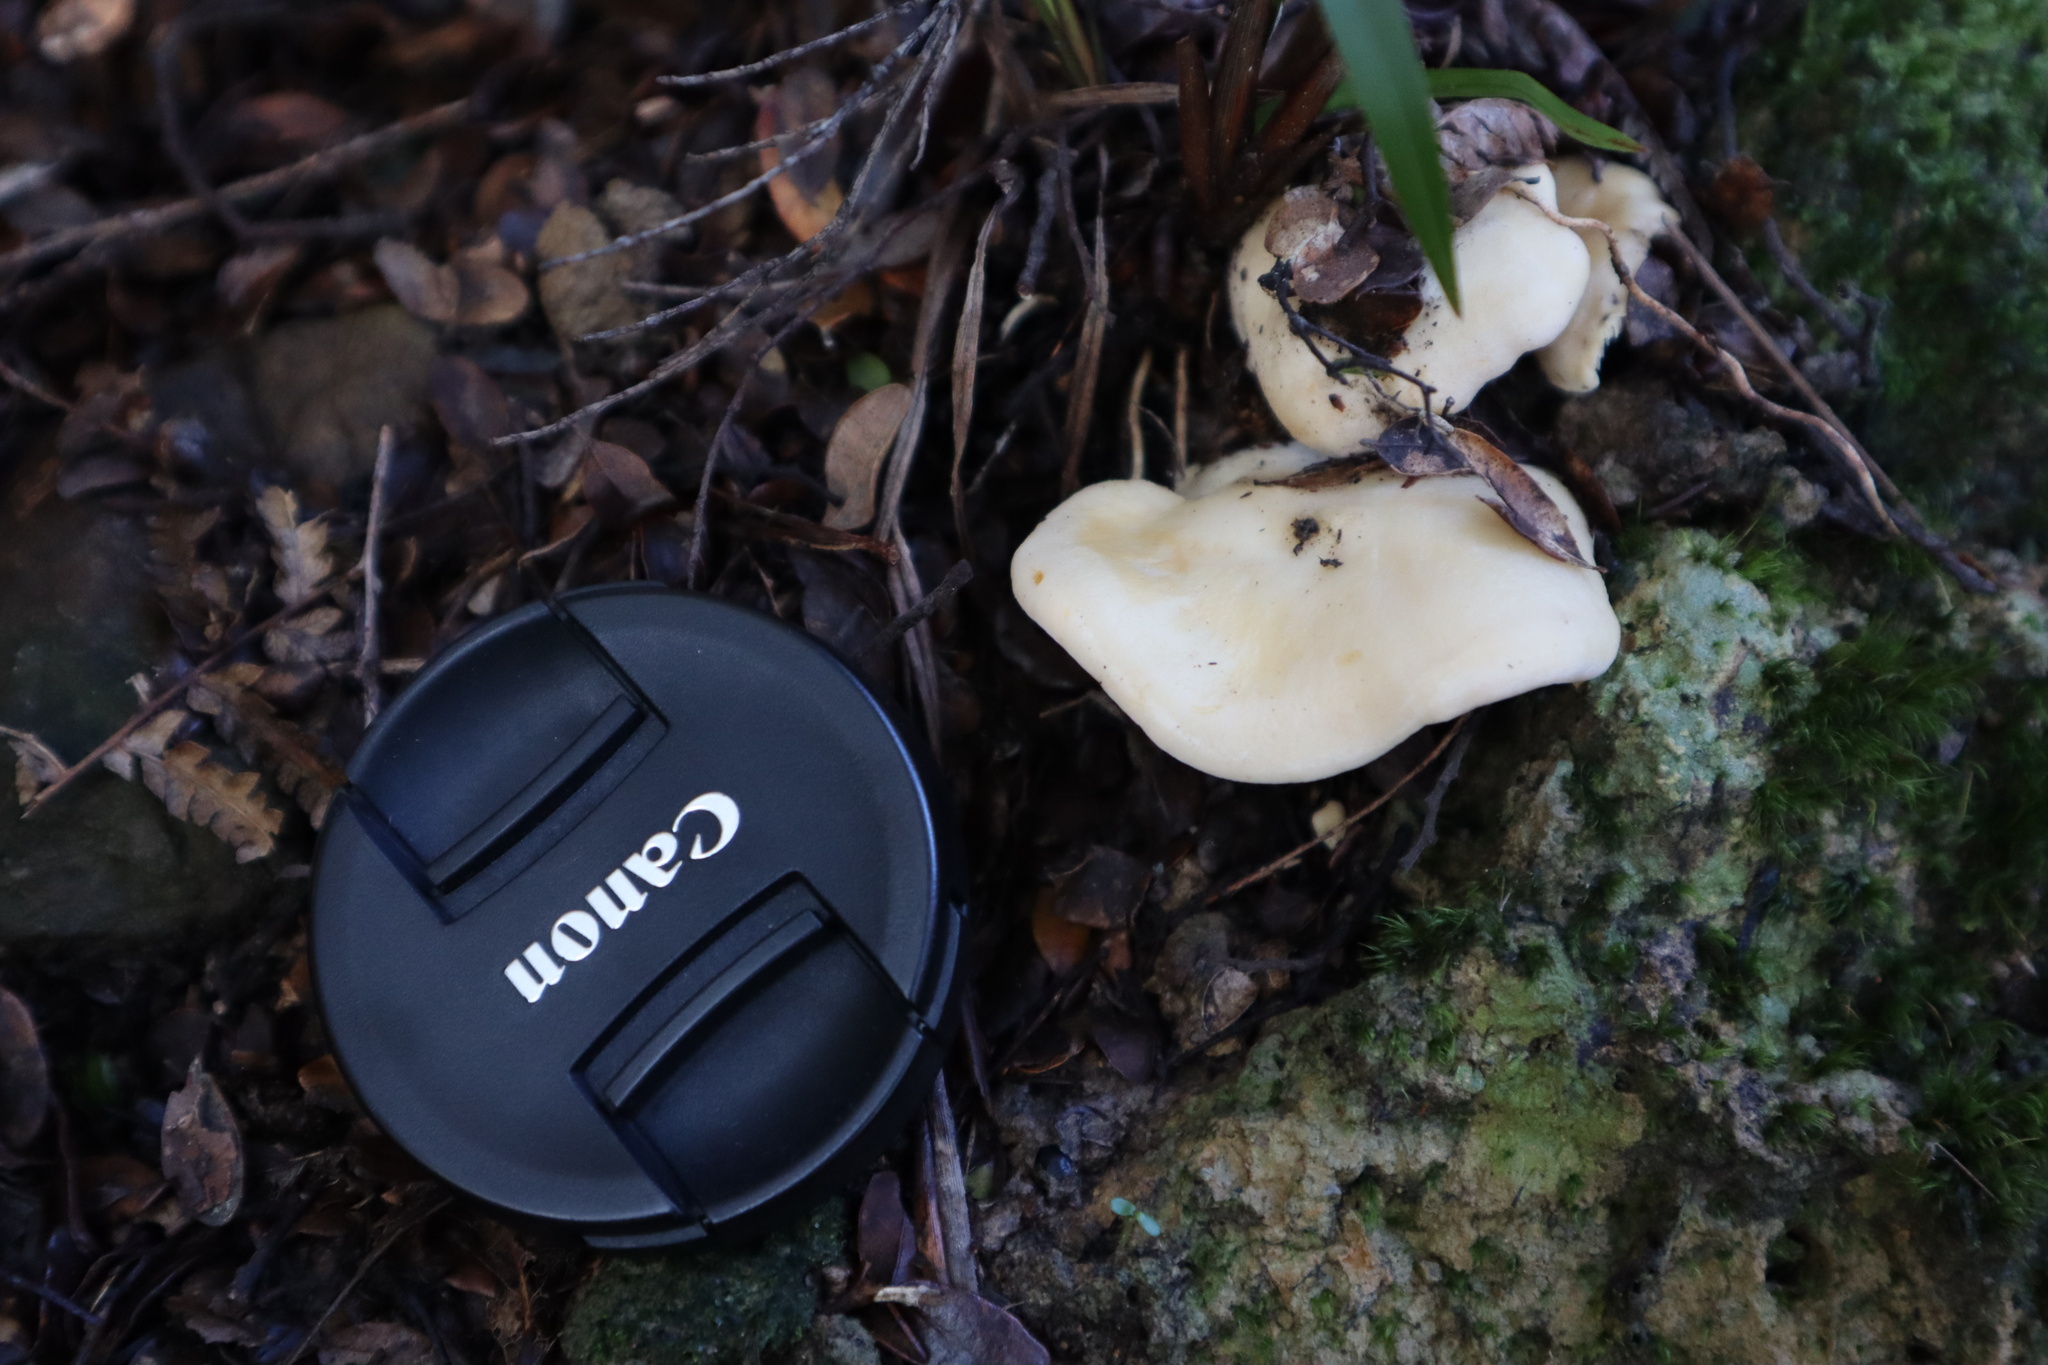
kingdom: Fungi
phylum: Basidiomycota
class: Agaricomycetes
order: Cantharellales
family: Hydnaceae
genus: Hydnum
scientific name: Hydnum ambustum
